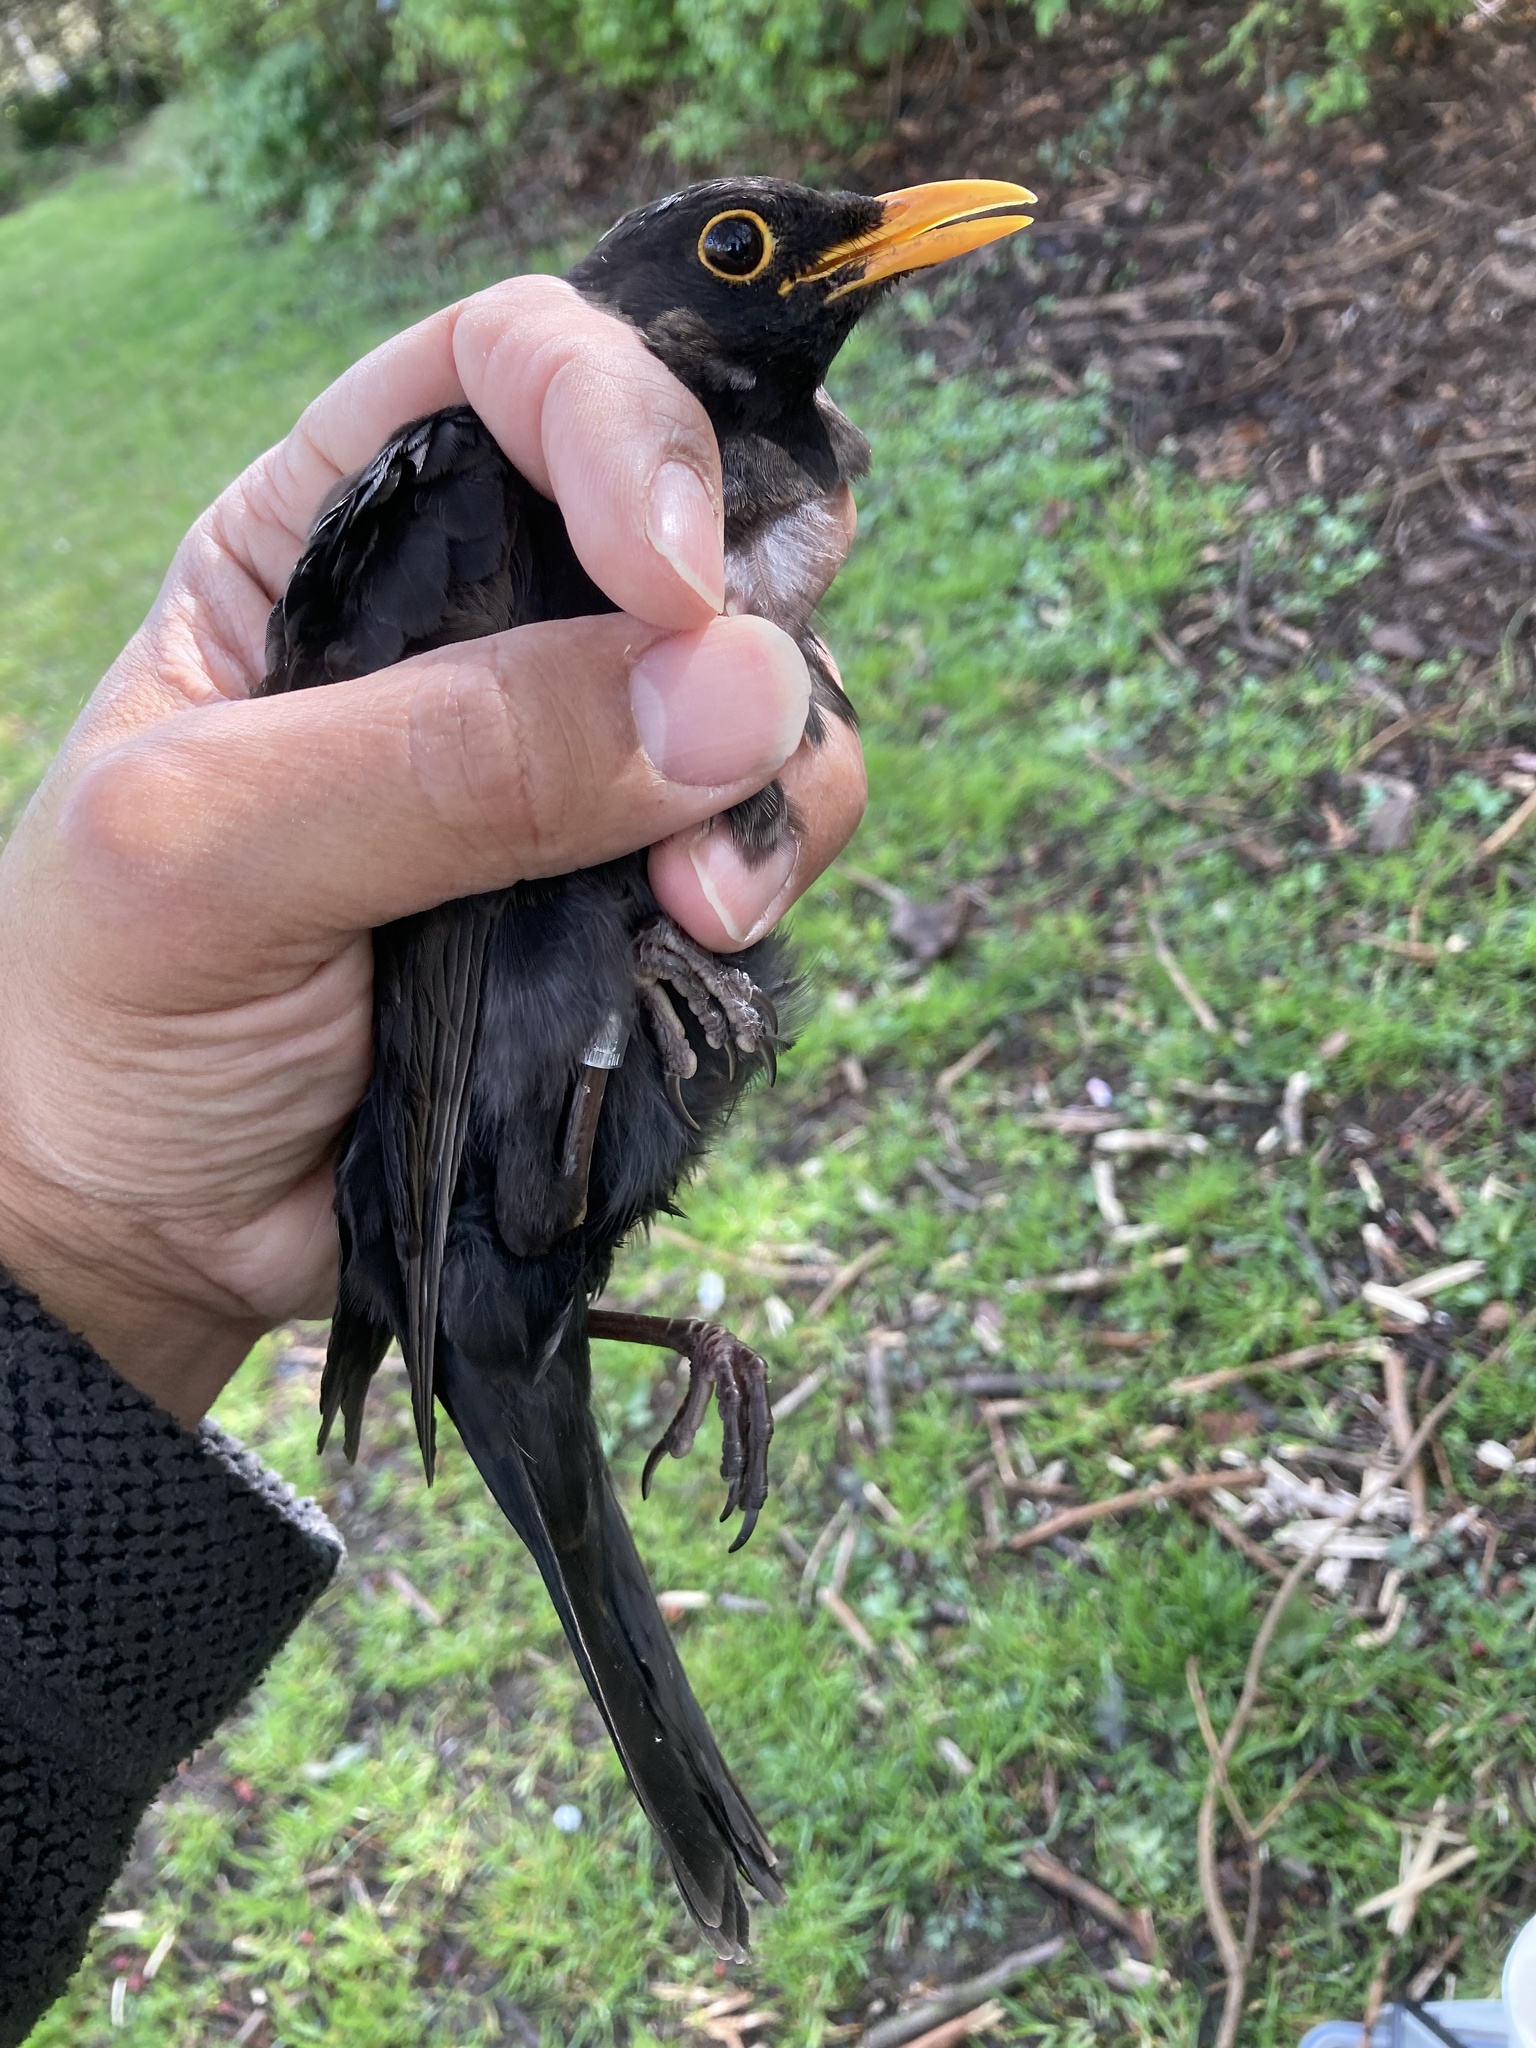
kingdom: Animalia
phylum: Chordata
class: Aves
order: Passeriformes
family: Turdidae
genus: Turdus
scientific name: Turdus merula
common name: Common blackbird
